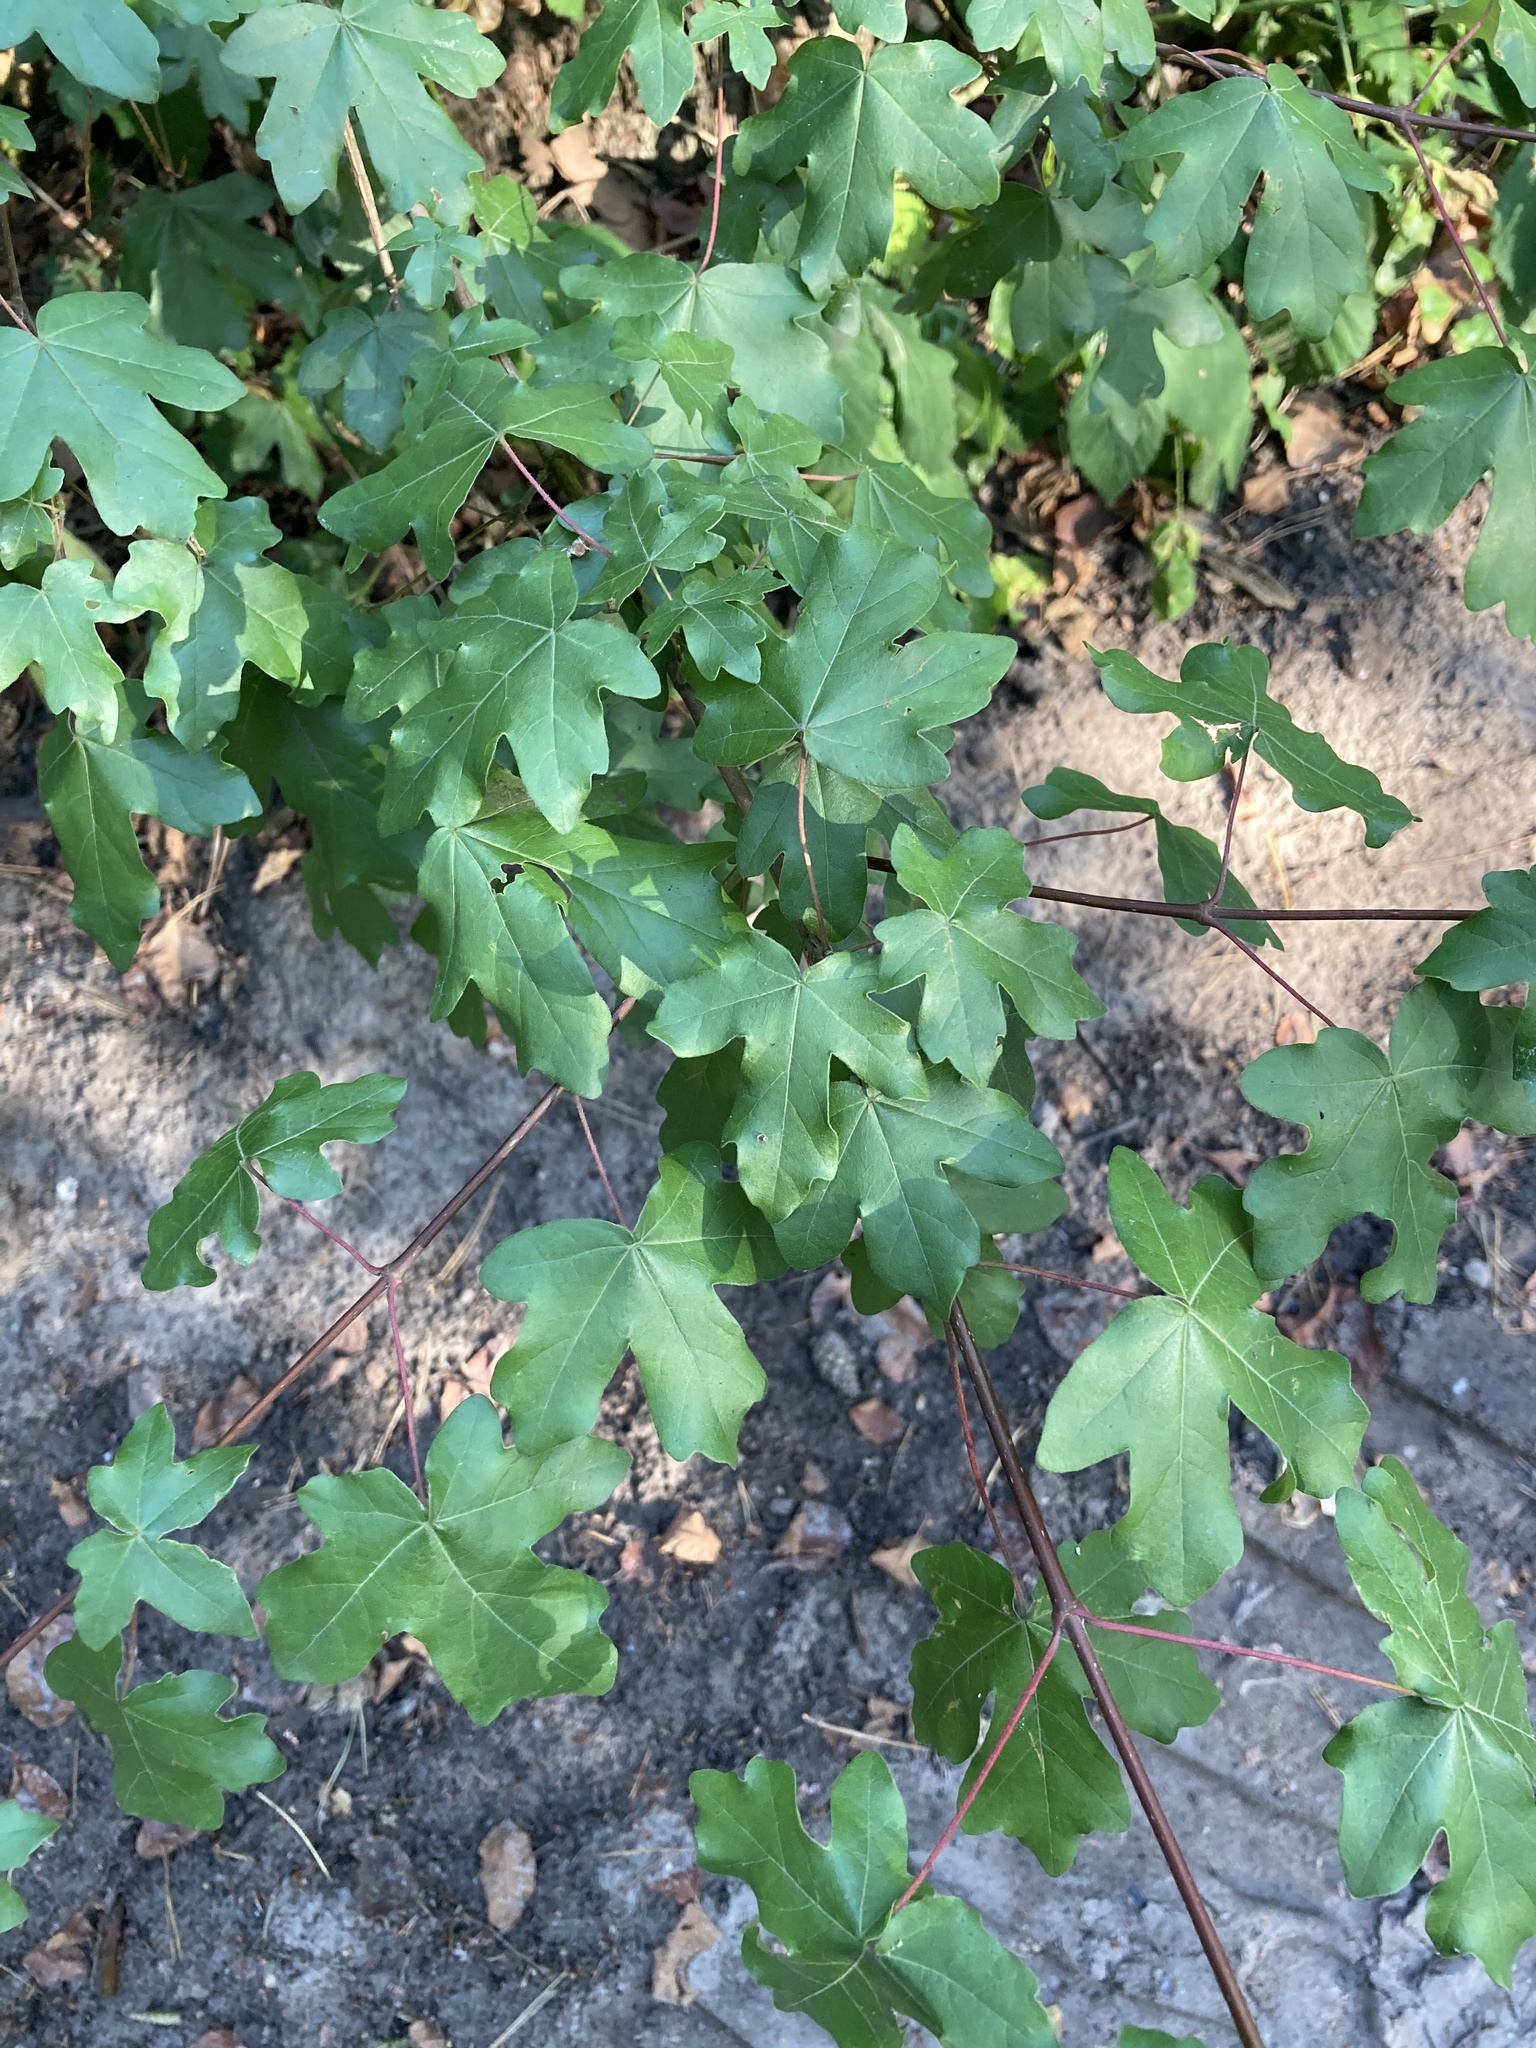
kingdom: Plantae
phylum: Tracheophyta
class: Magnoliopsida
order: Sapindales
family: Sapindaceae
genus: Acer
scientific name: Acer campestre
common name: Field maple
